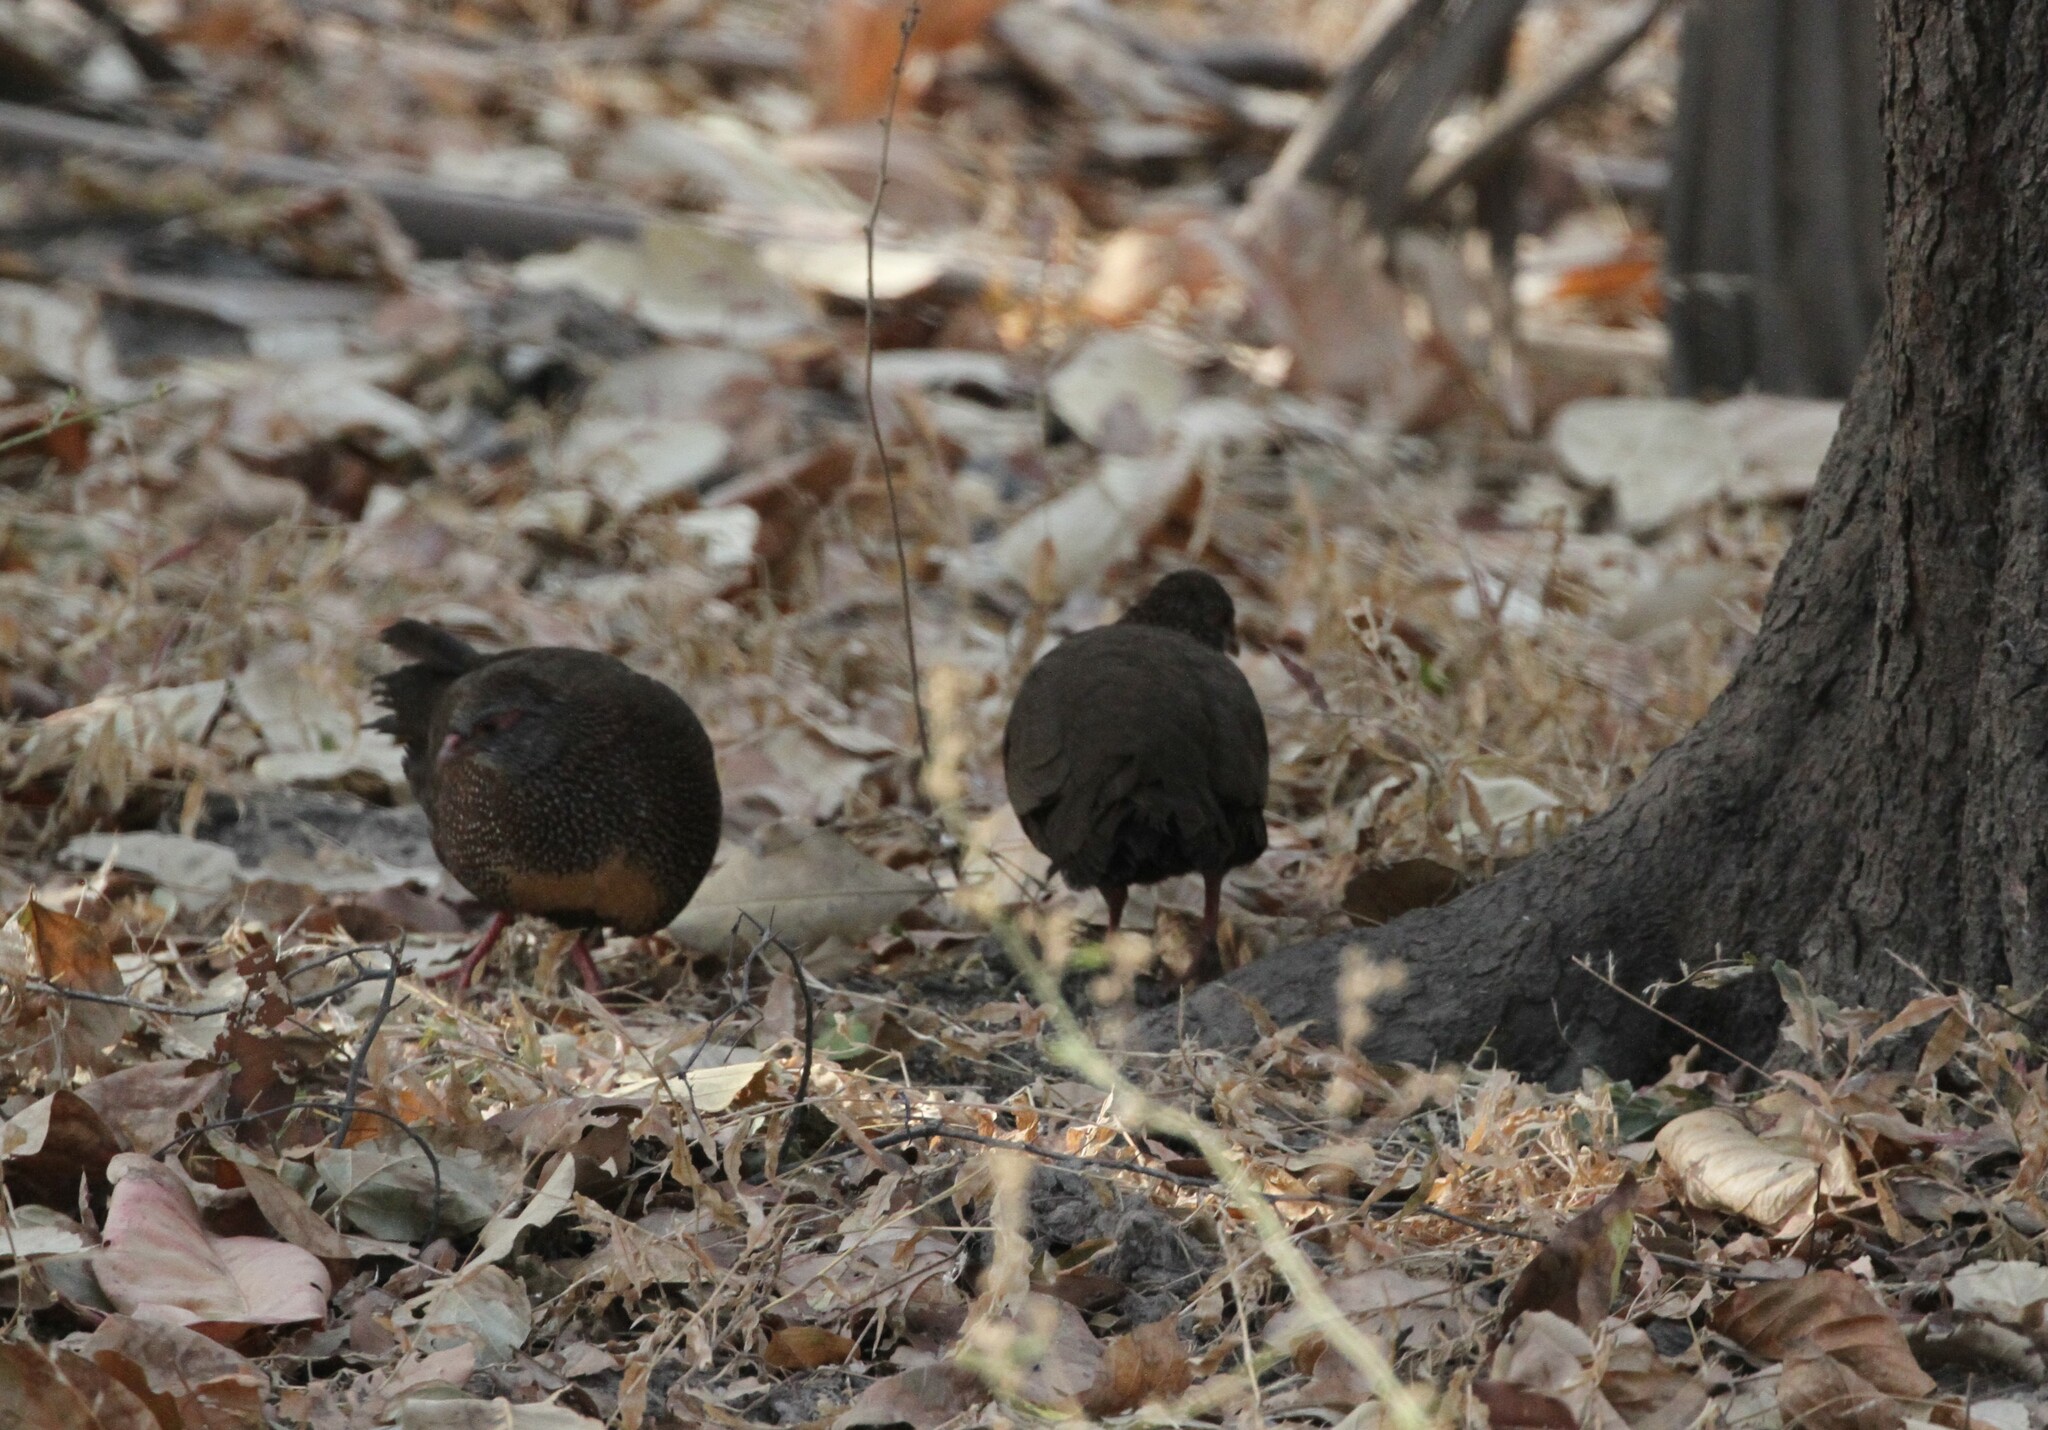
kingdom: Animalia
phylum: Chordata
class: Aves
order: Galliformes
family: Odontophoridae
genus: Ptilopachus
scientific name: Ptilopachus petrosus
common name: Stone partridge
